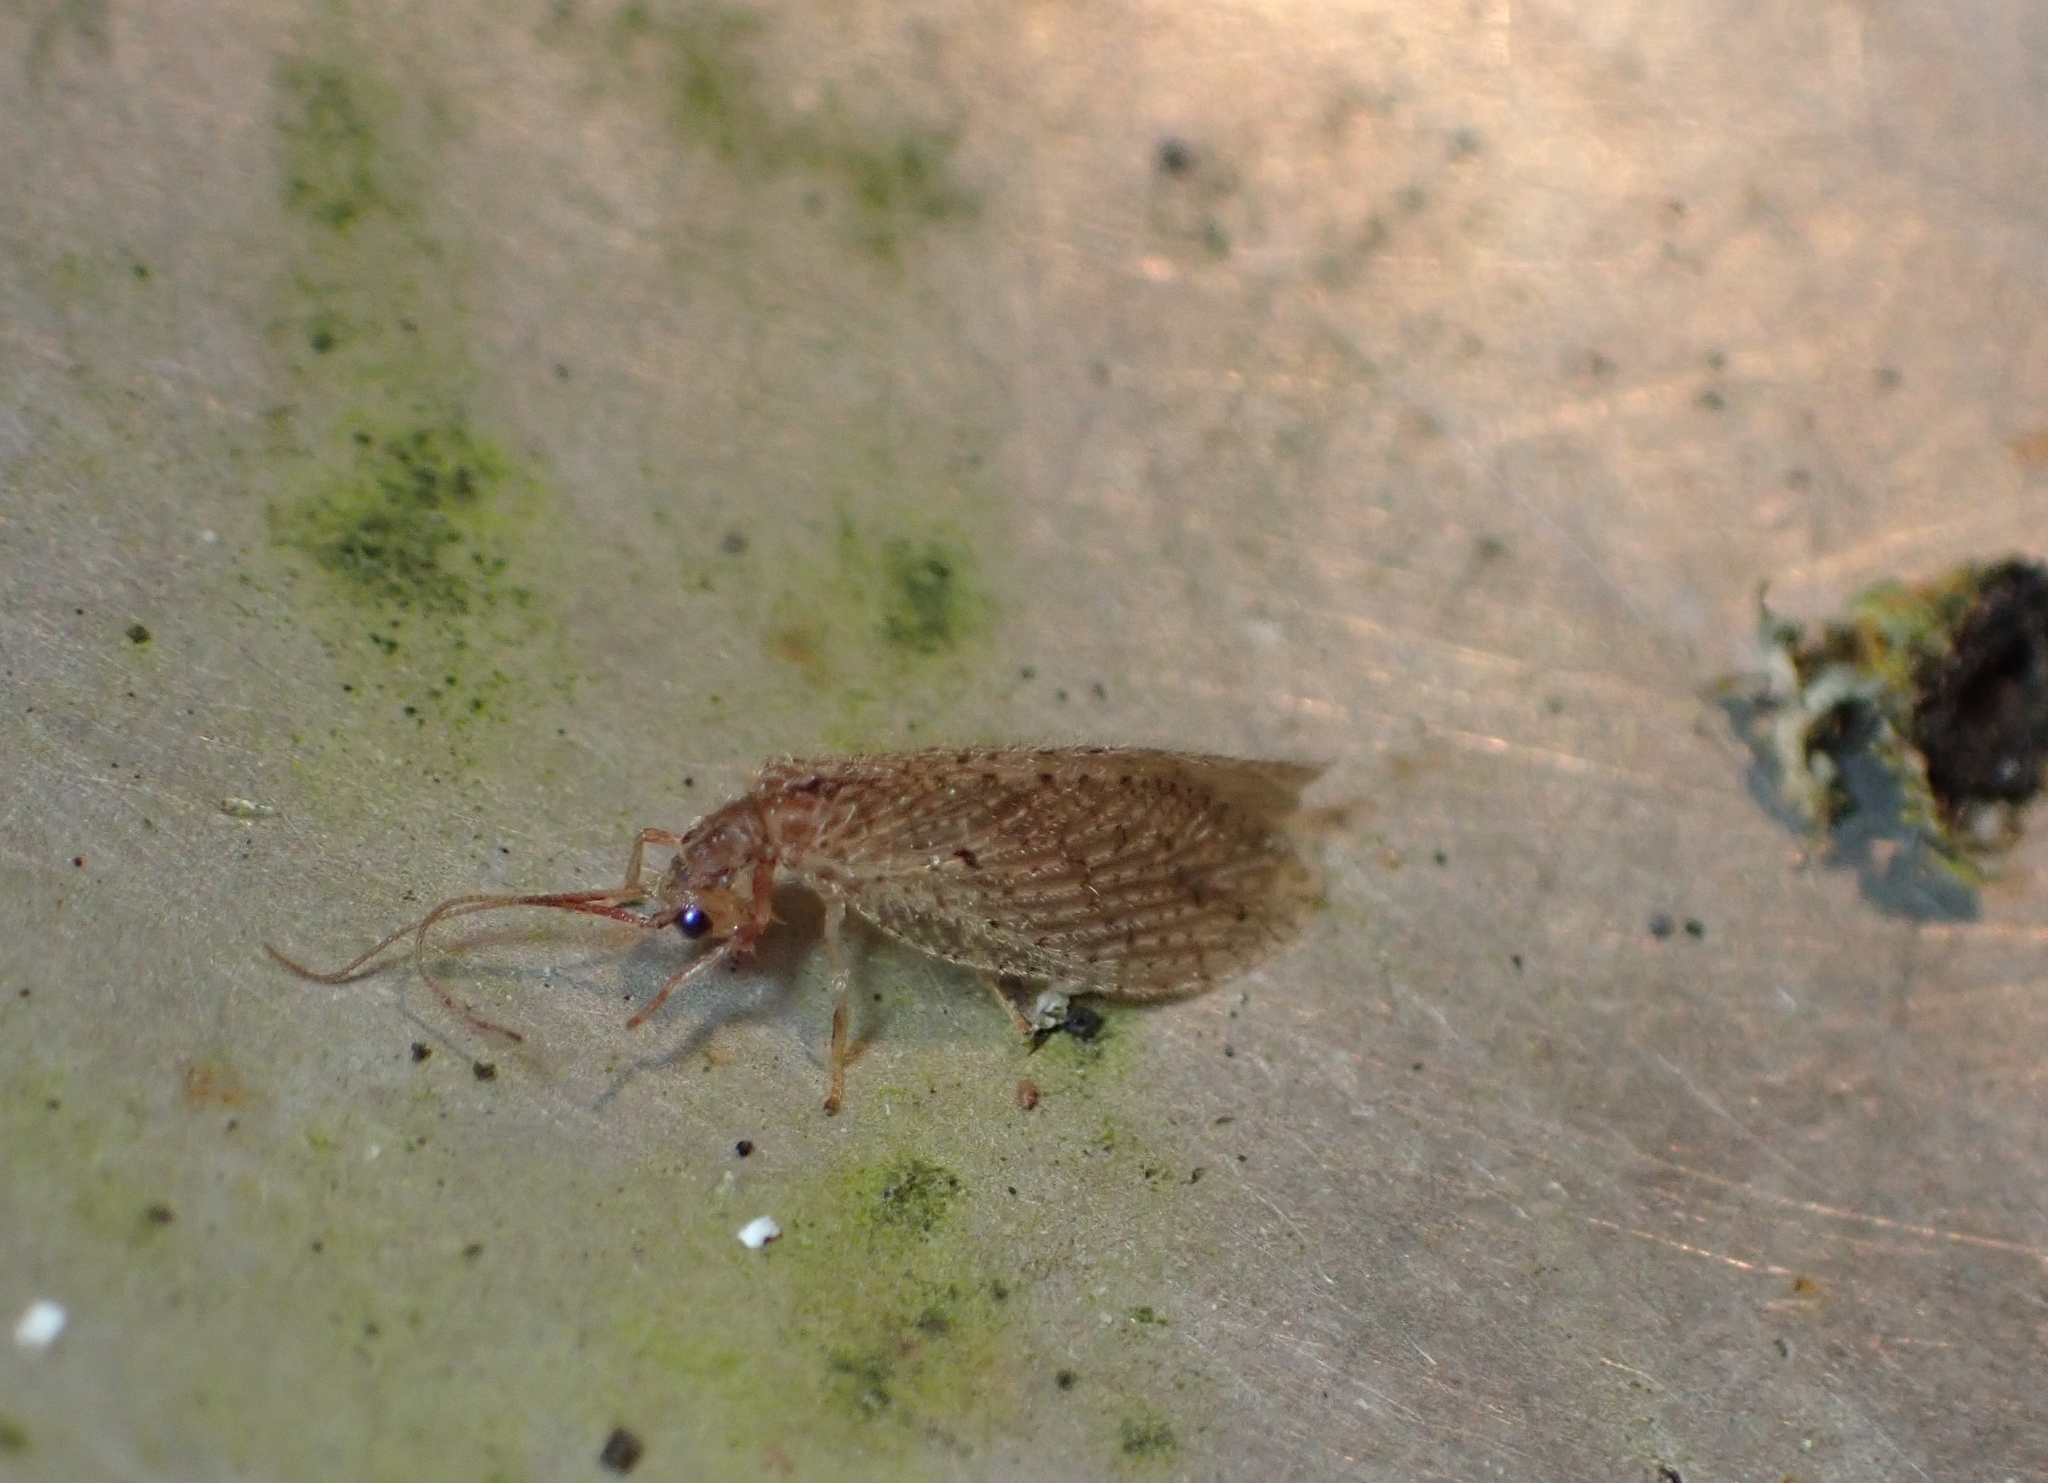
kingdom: Animalia
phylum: Arthropoda
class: Insecta
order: Neuroptera
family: Hemerobiidae
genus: Micromus
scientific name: Micromus tasmaniae
